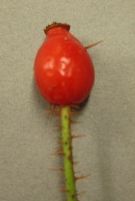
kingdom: Plantae
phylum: Tracheophyta
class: Magnoliopsida
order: Rosales
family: Rosaceae
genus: Rosa
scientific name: Rosa rubiginosa
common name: Sweet-briar
